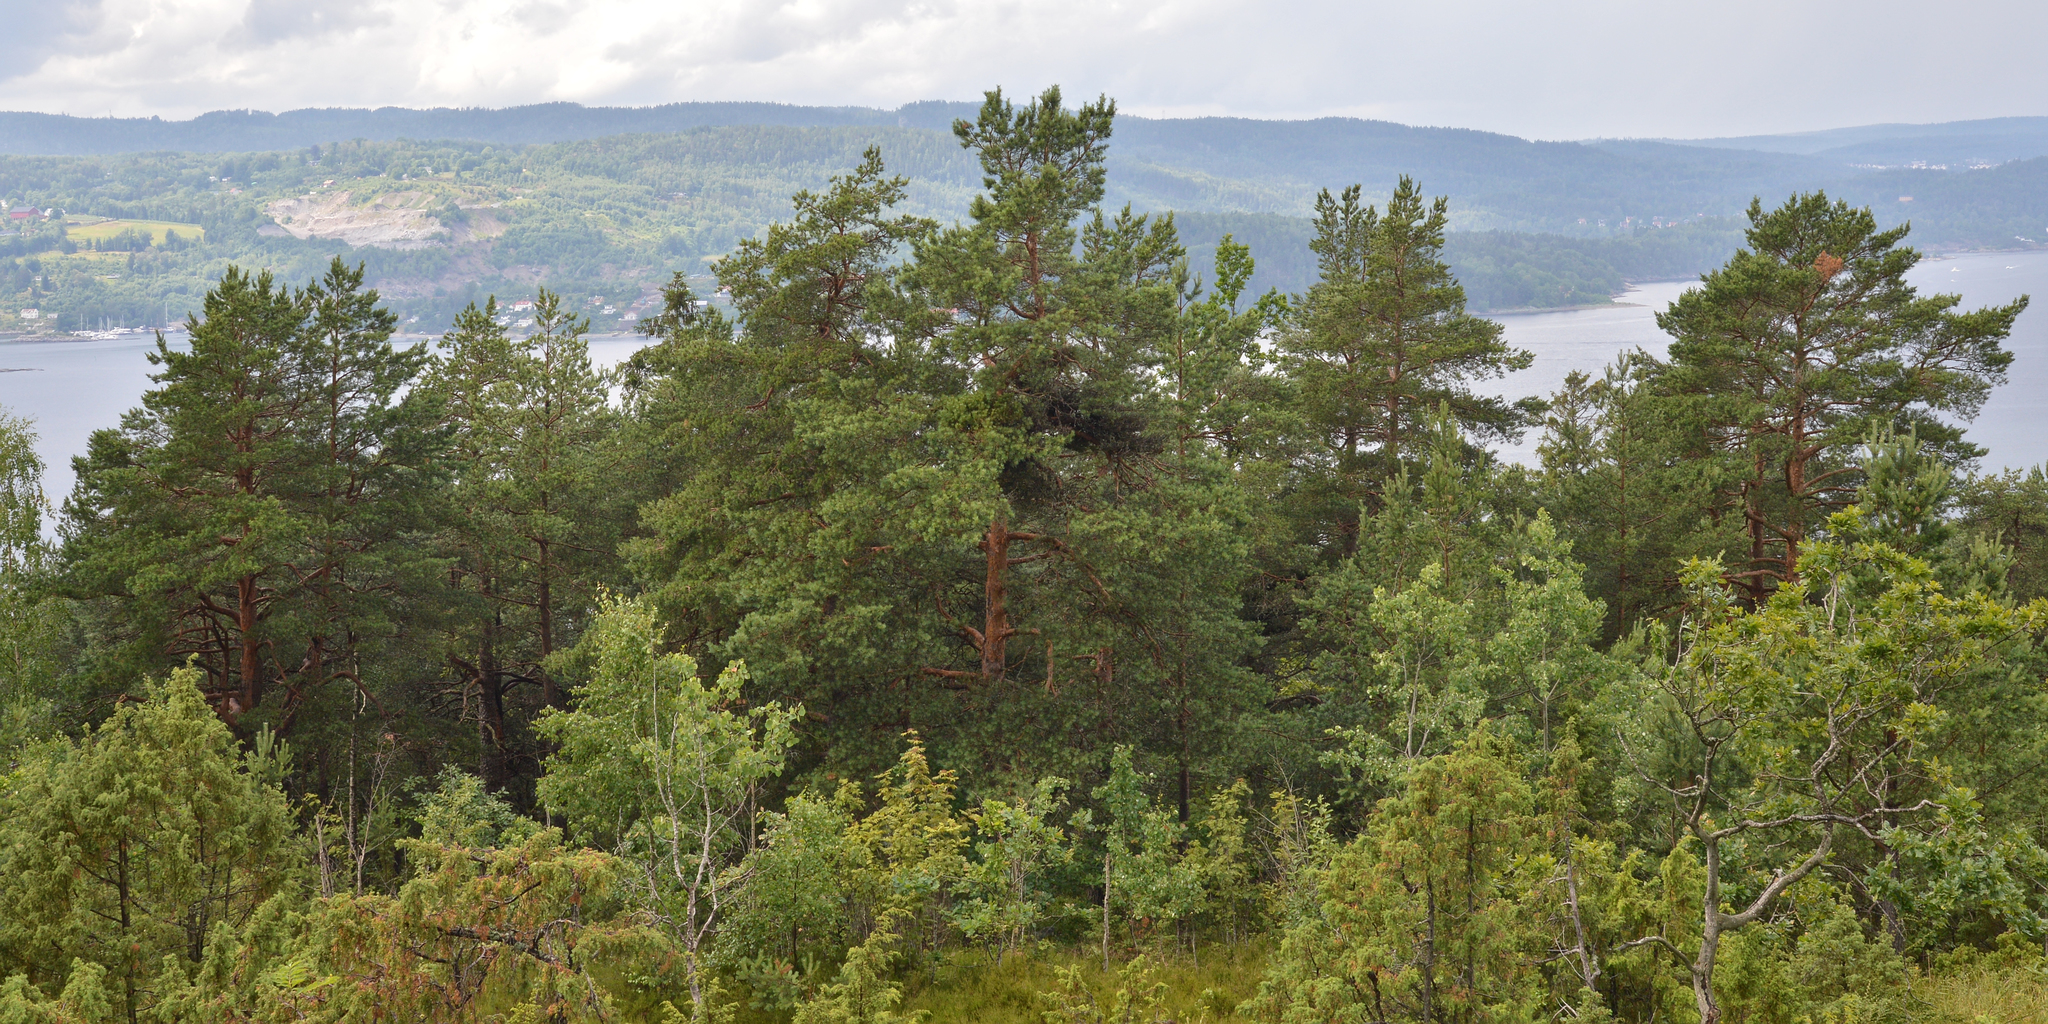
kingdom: Plantae
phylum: Tracheophyta
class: Pinopsida
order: Pinales
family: Pinaceae
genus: Pinus
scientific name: Pinus sylvestris
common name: Scots pine
